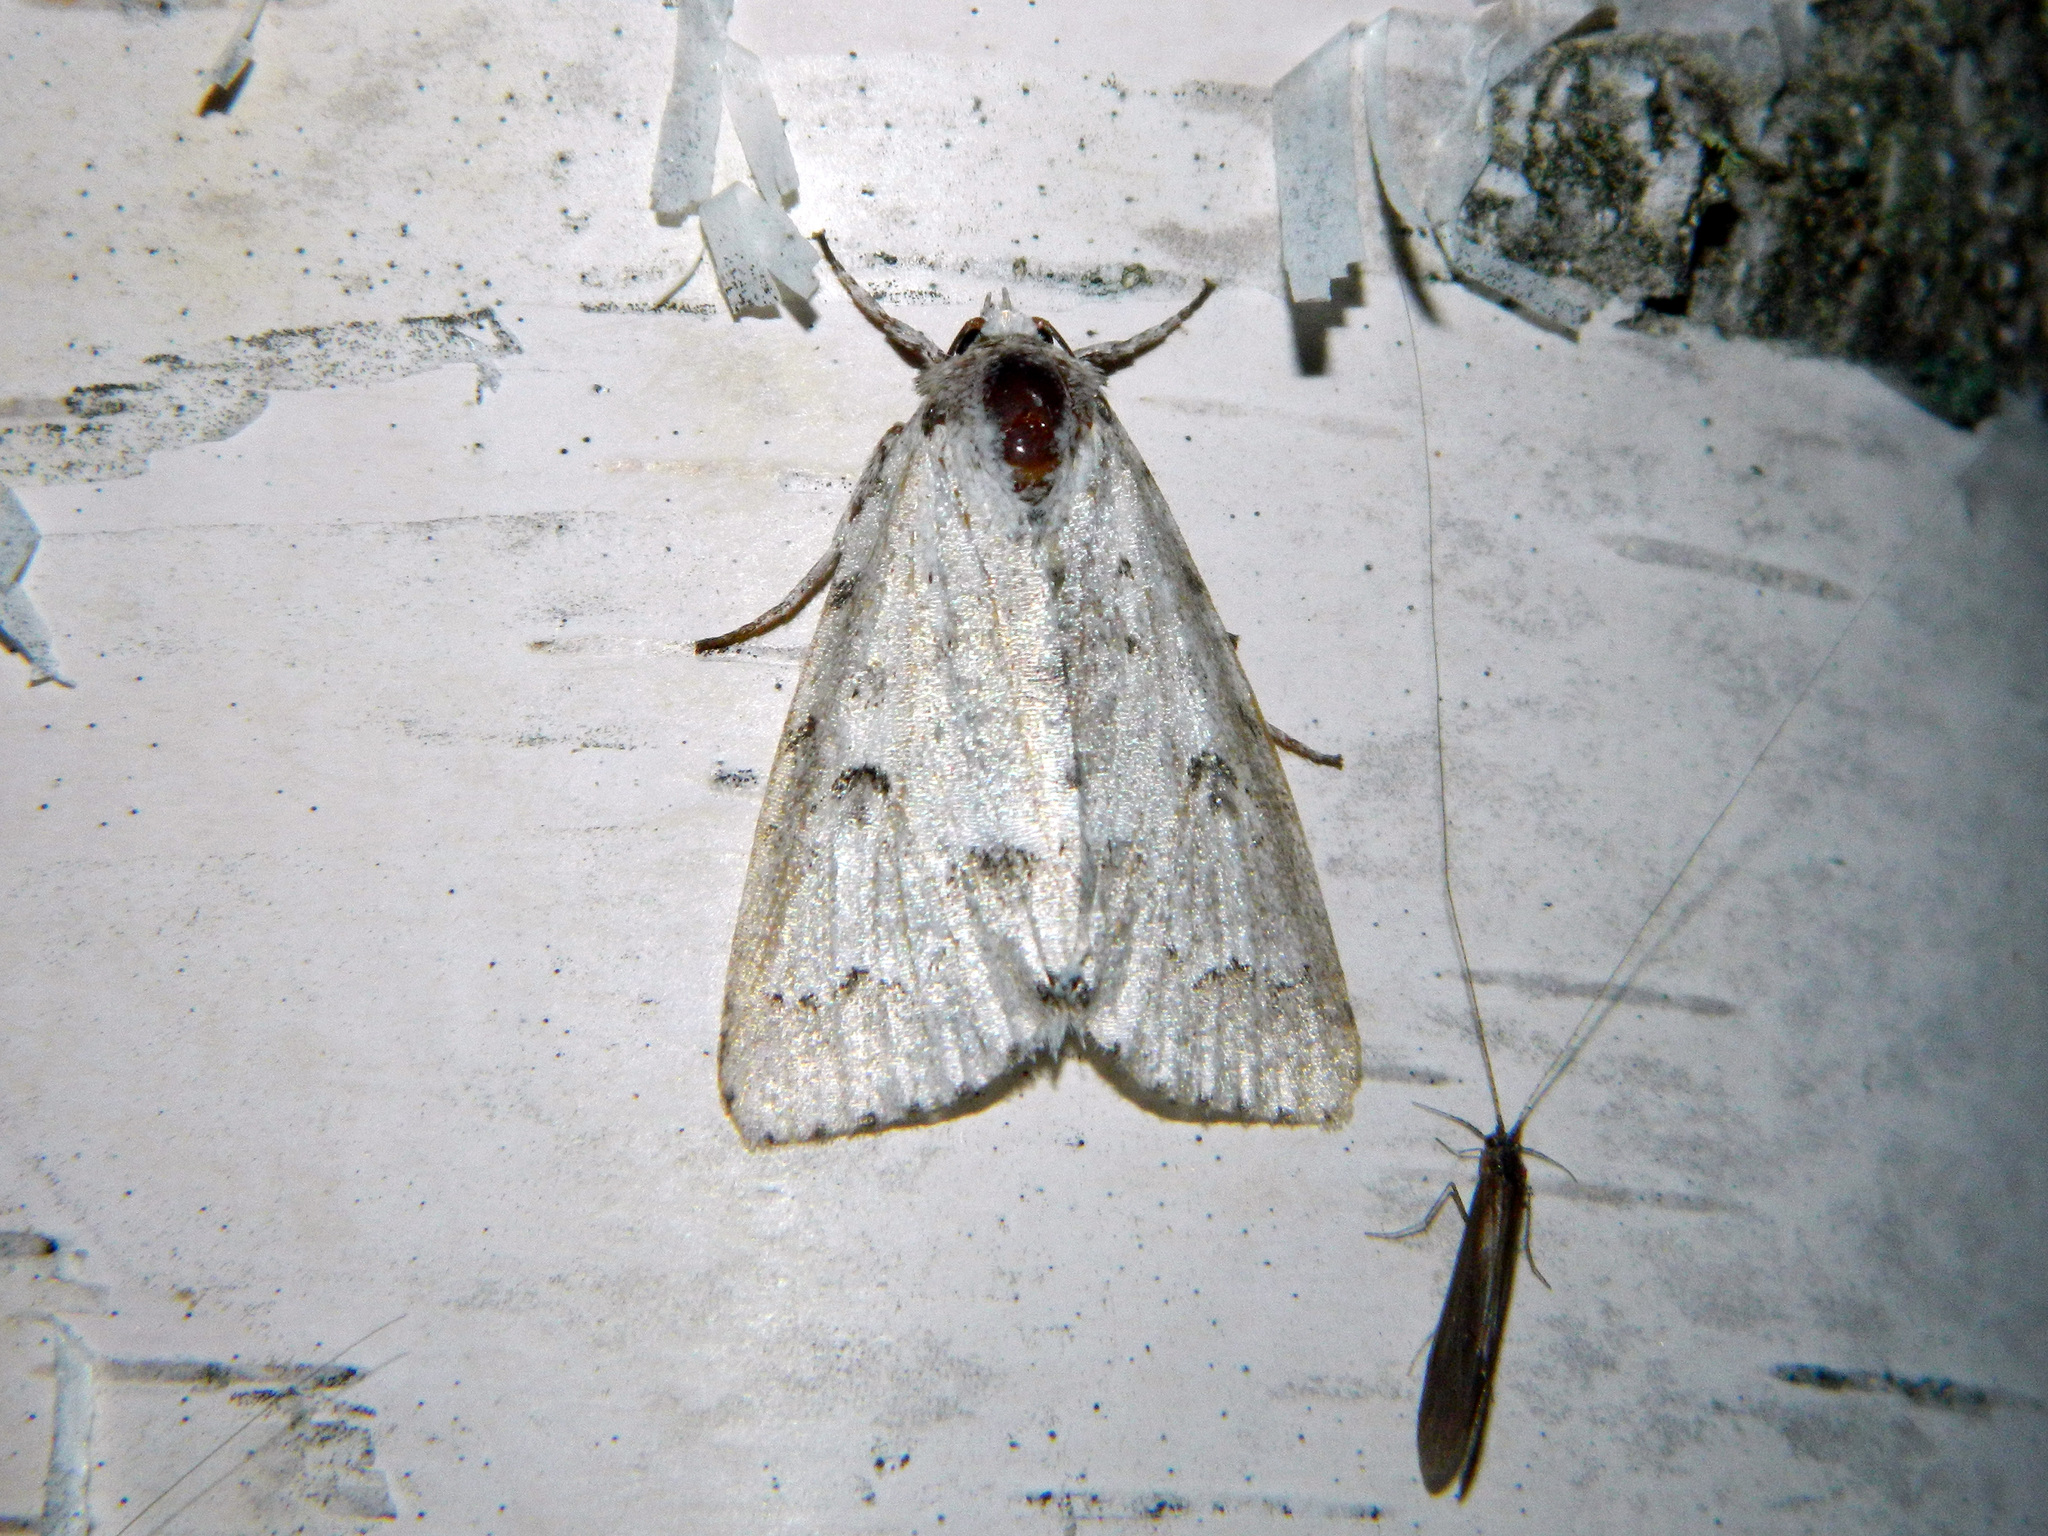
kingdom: Animalia
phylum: Arthropoda
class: Insecta
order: Lepidoptera
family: Noctuidae
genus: Acronicta
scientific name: Acronicta innotata
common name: Unmarked dagger
